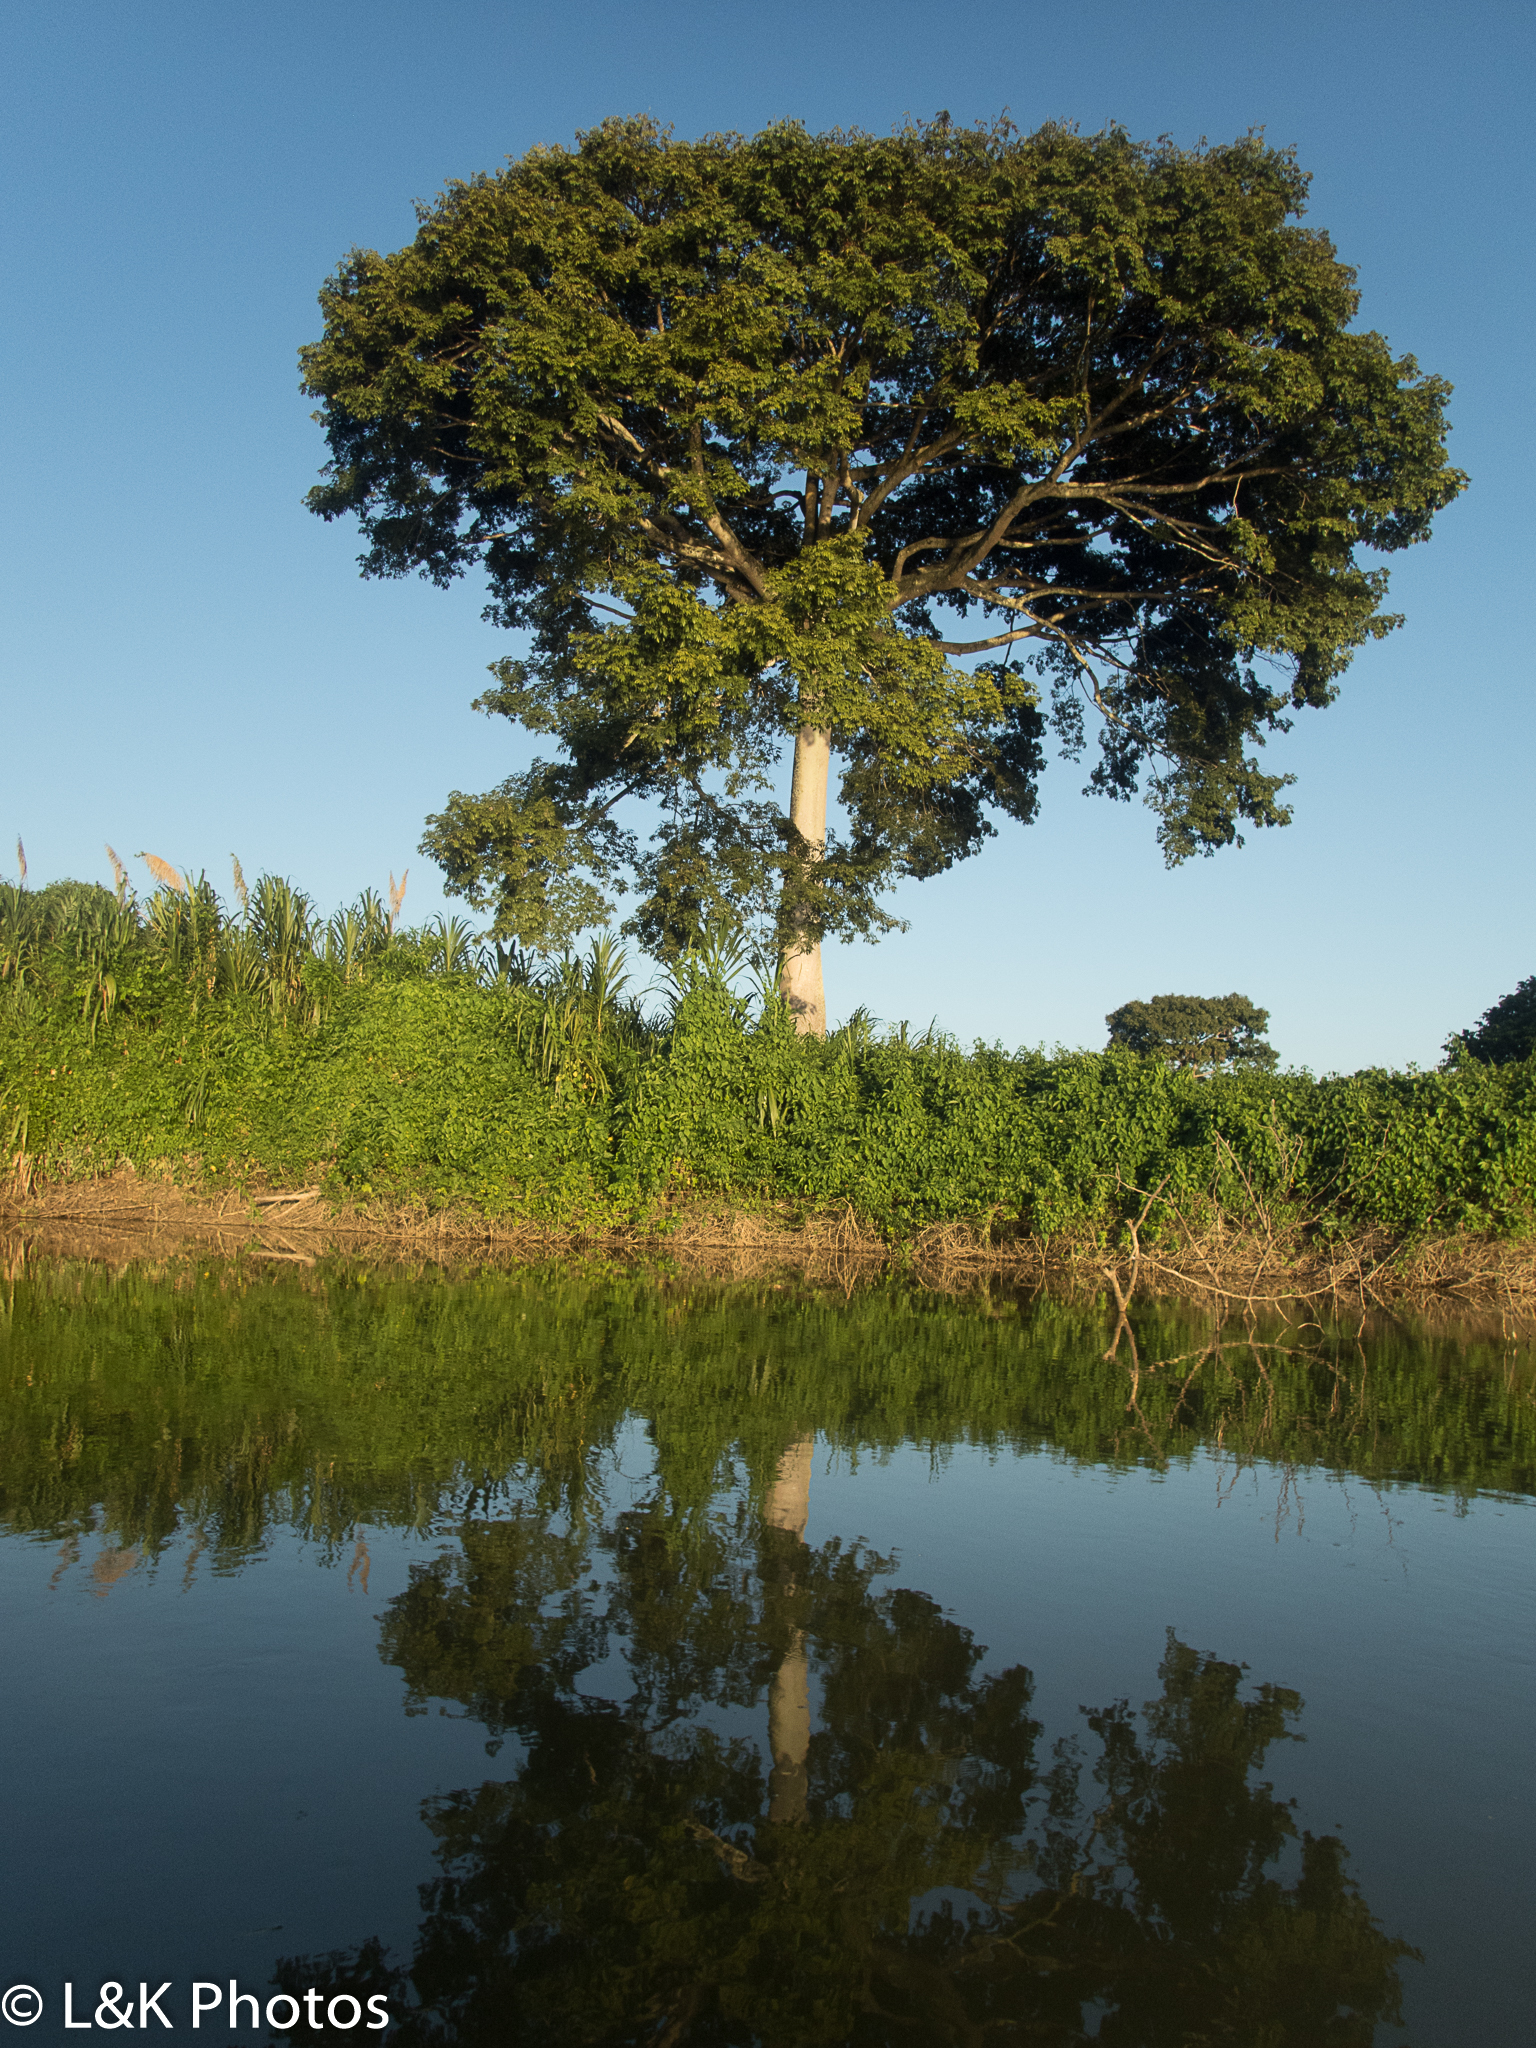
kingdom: Plantae
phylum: Tracheophyta
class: Magnoliopsida
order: Malvales
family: Malvaceae
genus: Ceiba
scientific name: Ceiba pentandra
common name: Kapok
